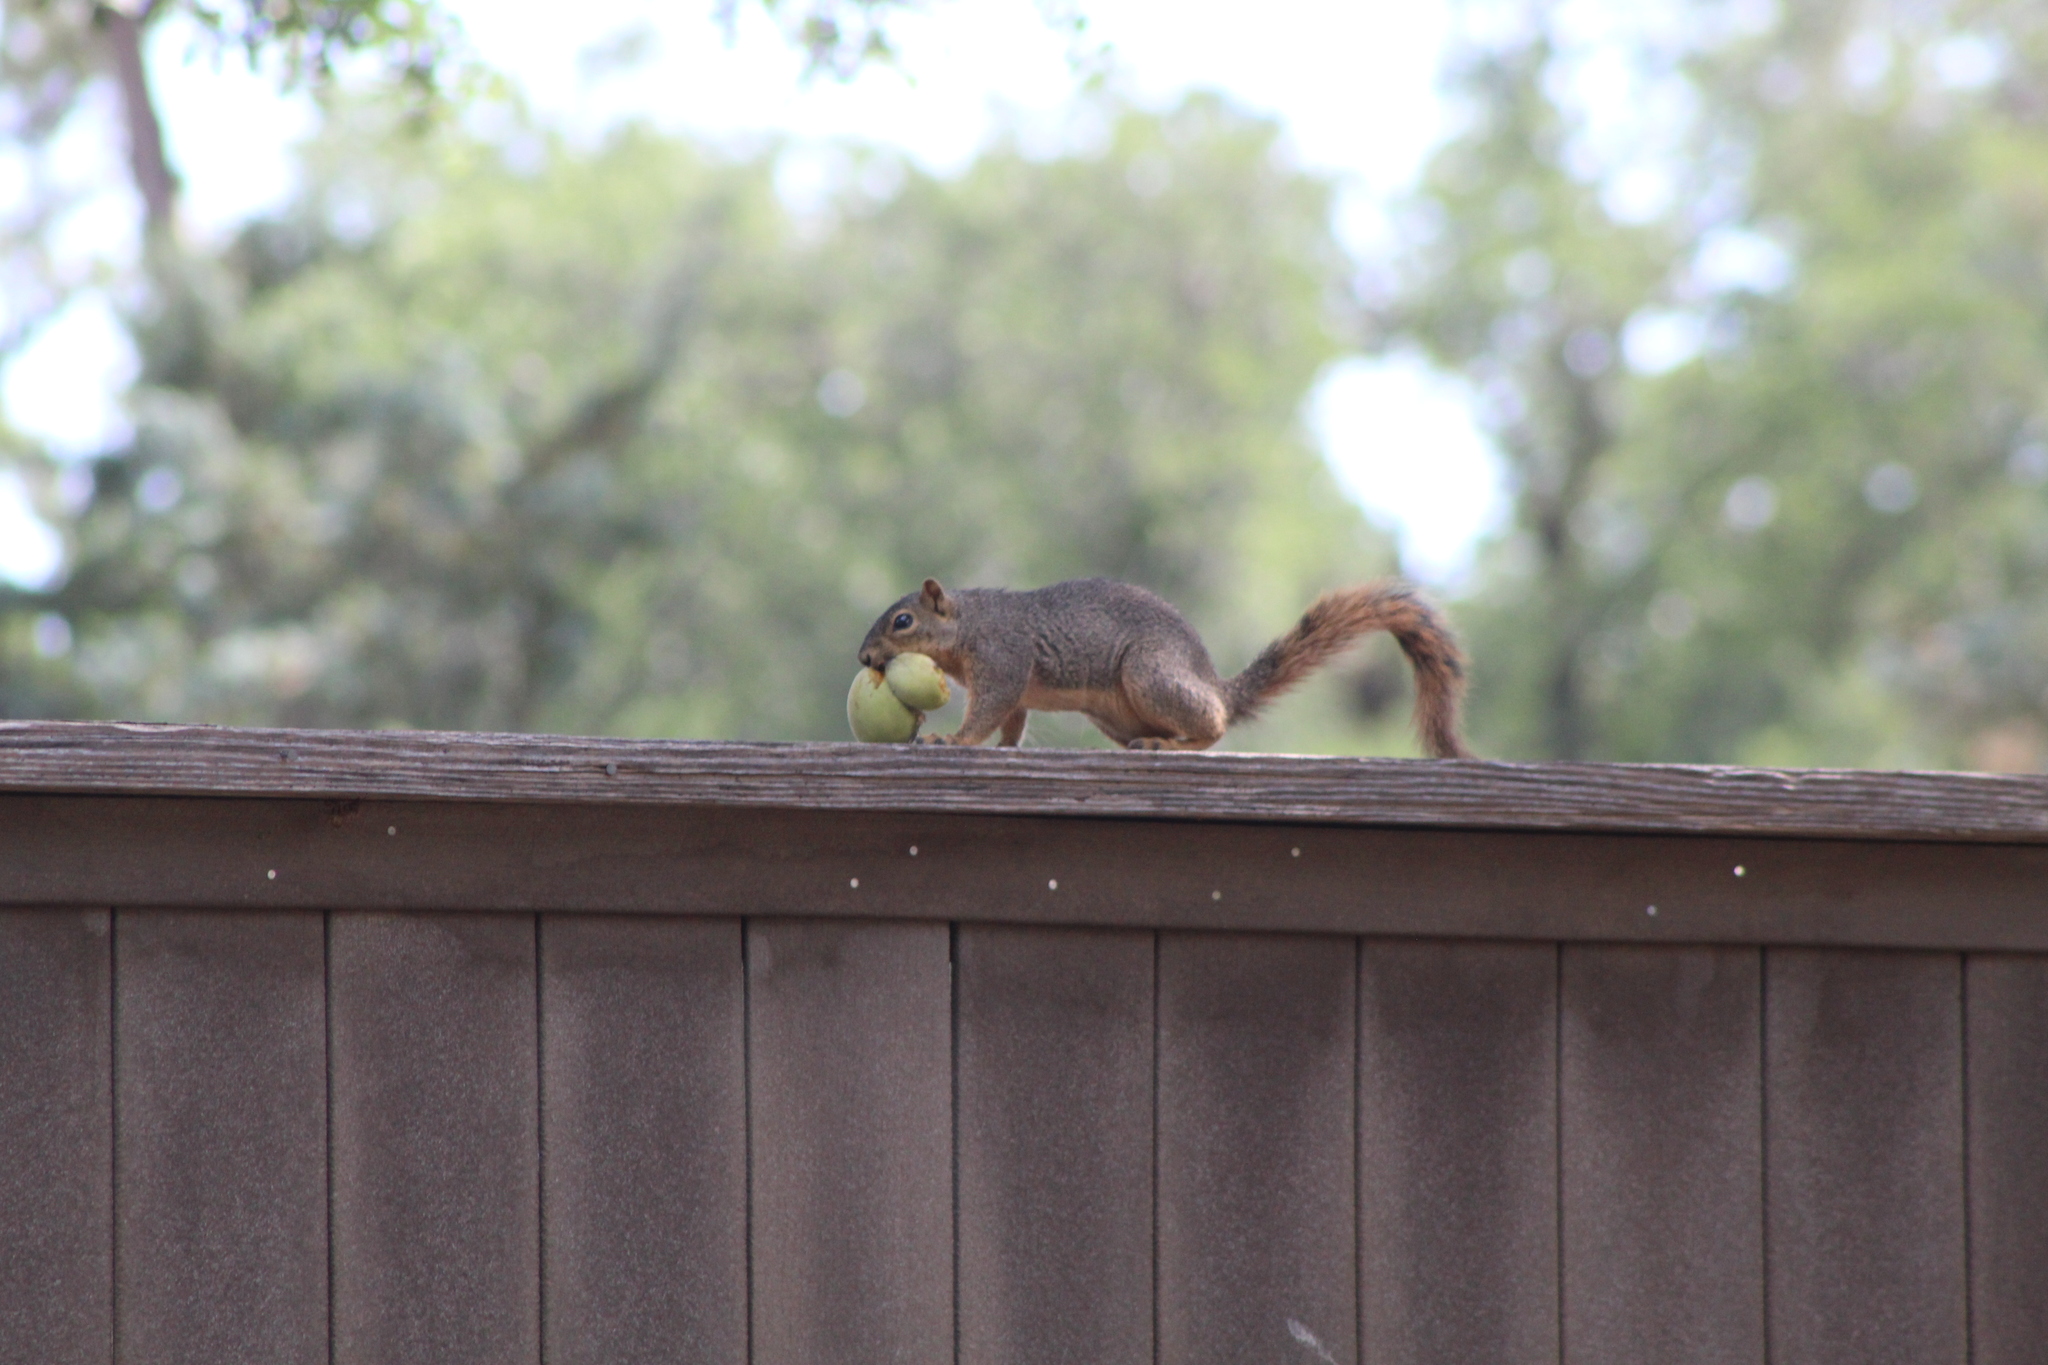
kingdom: Animalia
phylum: Chordata
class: Mammalia
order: Rodentia
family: Sciuridae
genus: Sciurus
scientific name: Sciurus niger
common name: Fox squirrel
